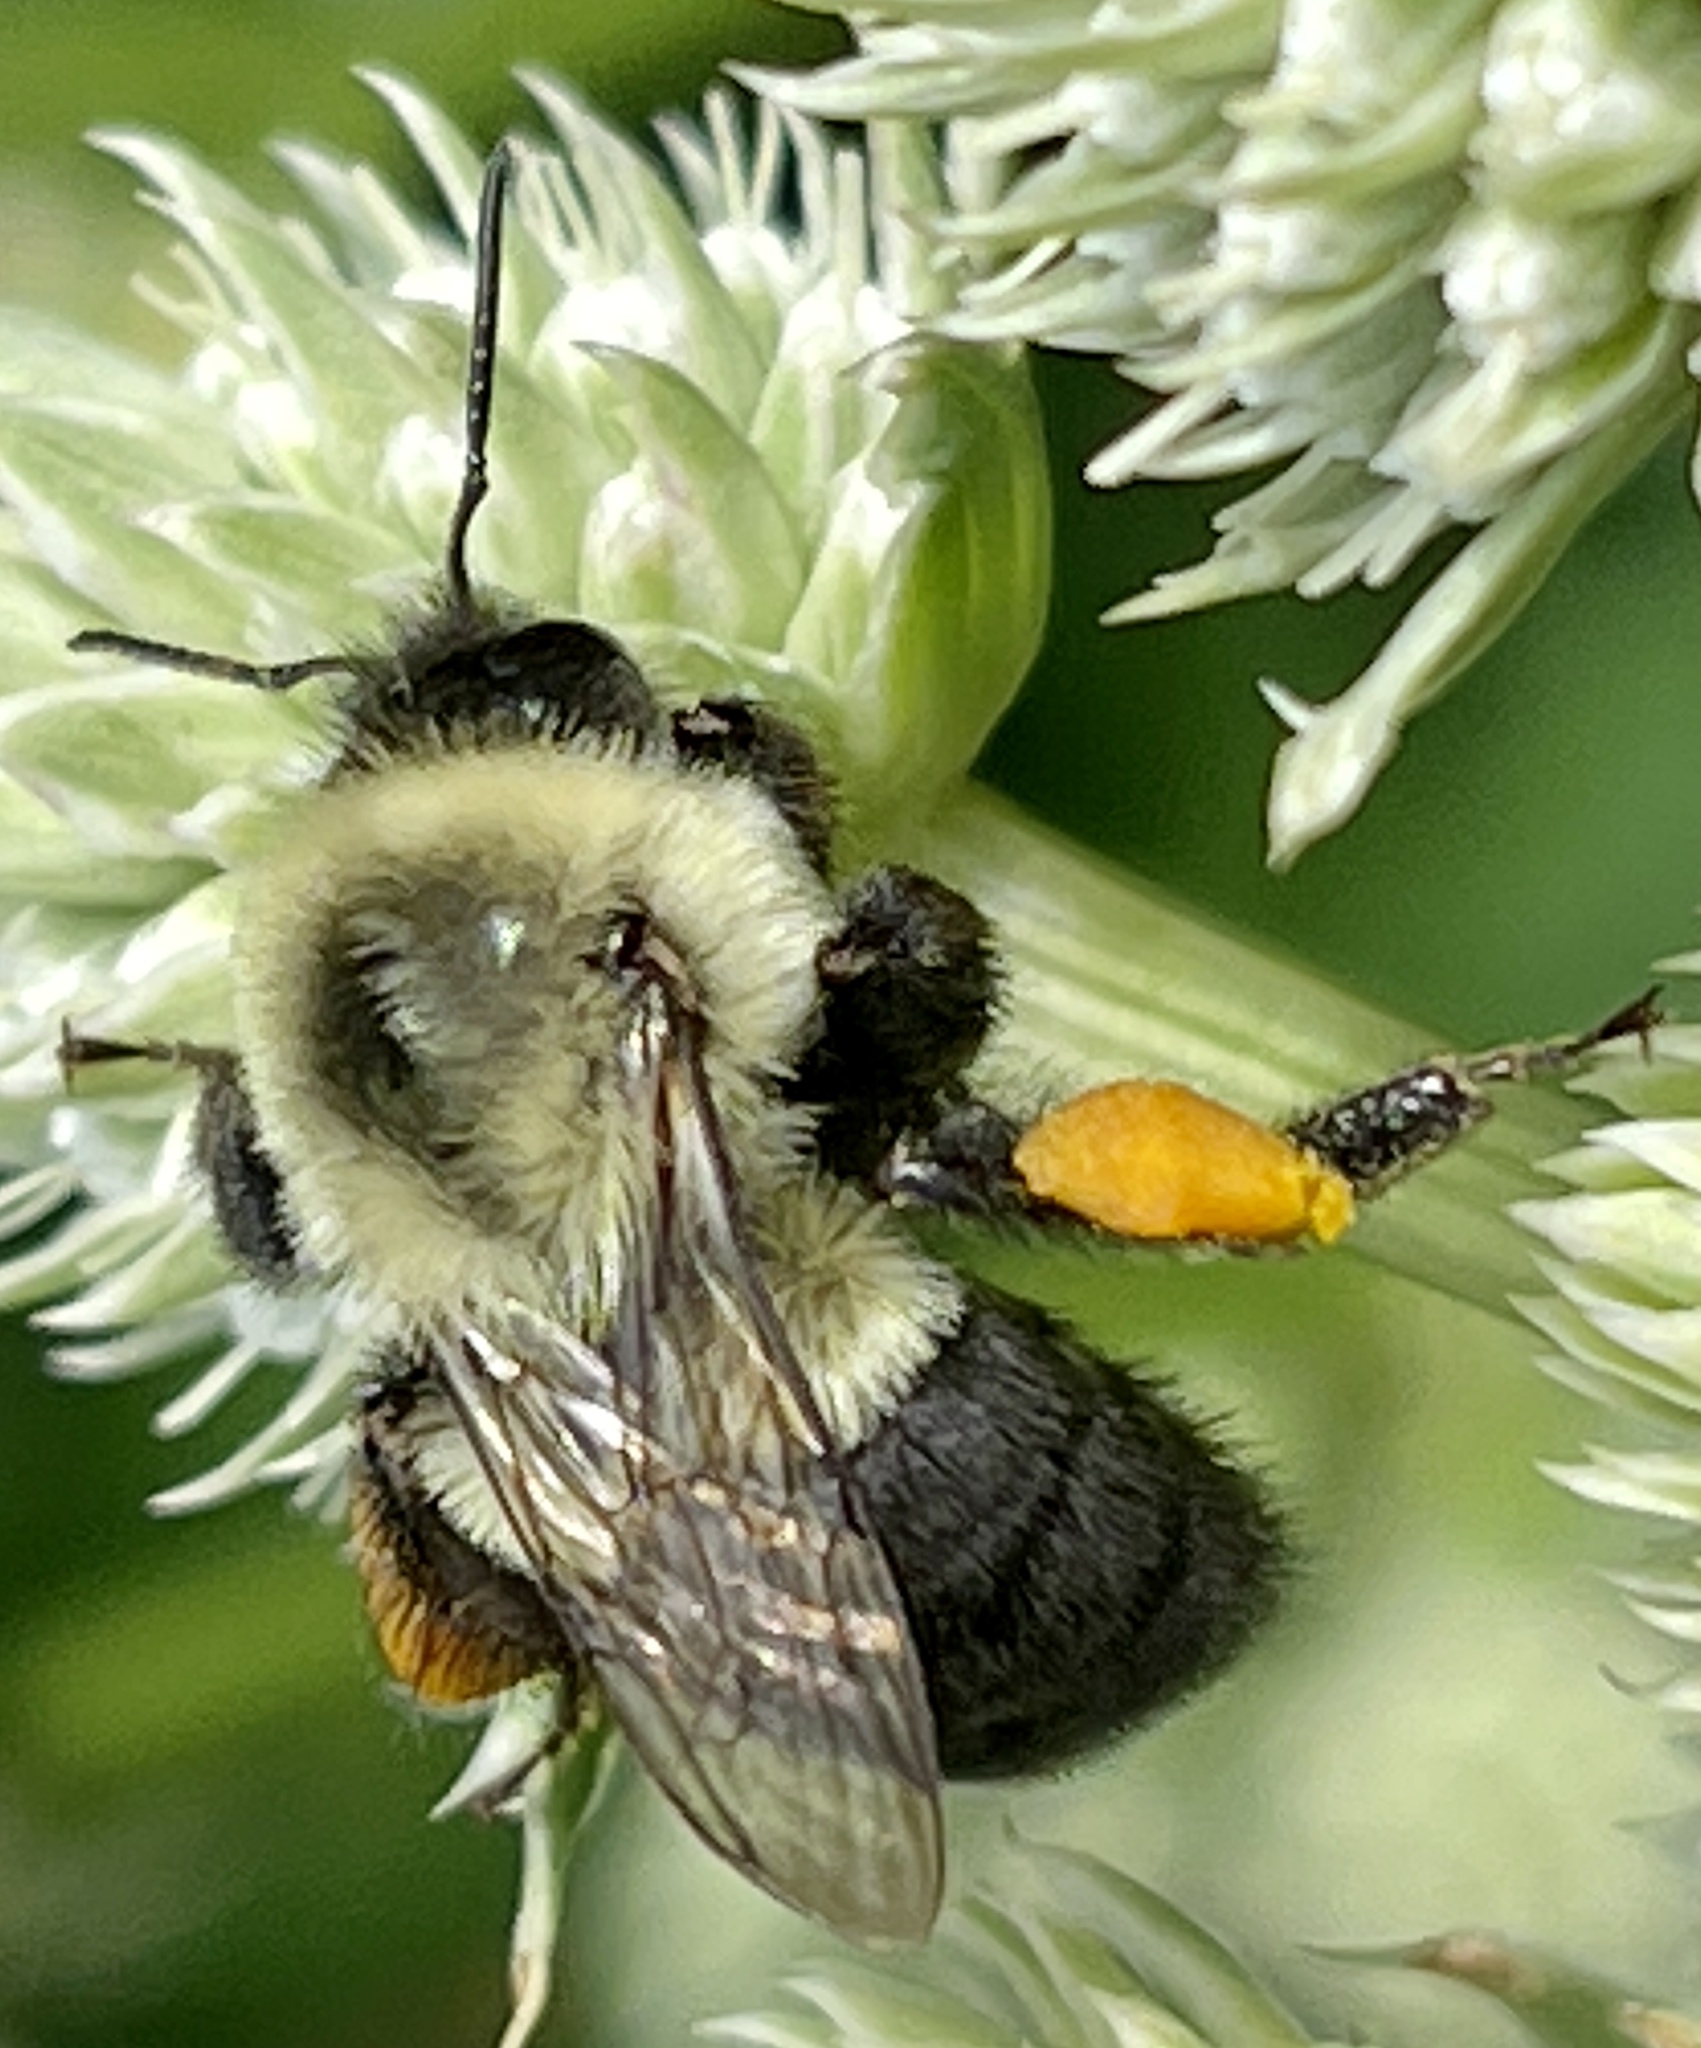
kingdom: Animalia
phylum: Arthropoda
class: Insecta
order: Hymenoptera
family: Apidae
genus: Bombus
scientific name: Bombus impatiens
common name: Common eastern bumble bee
